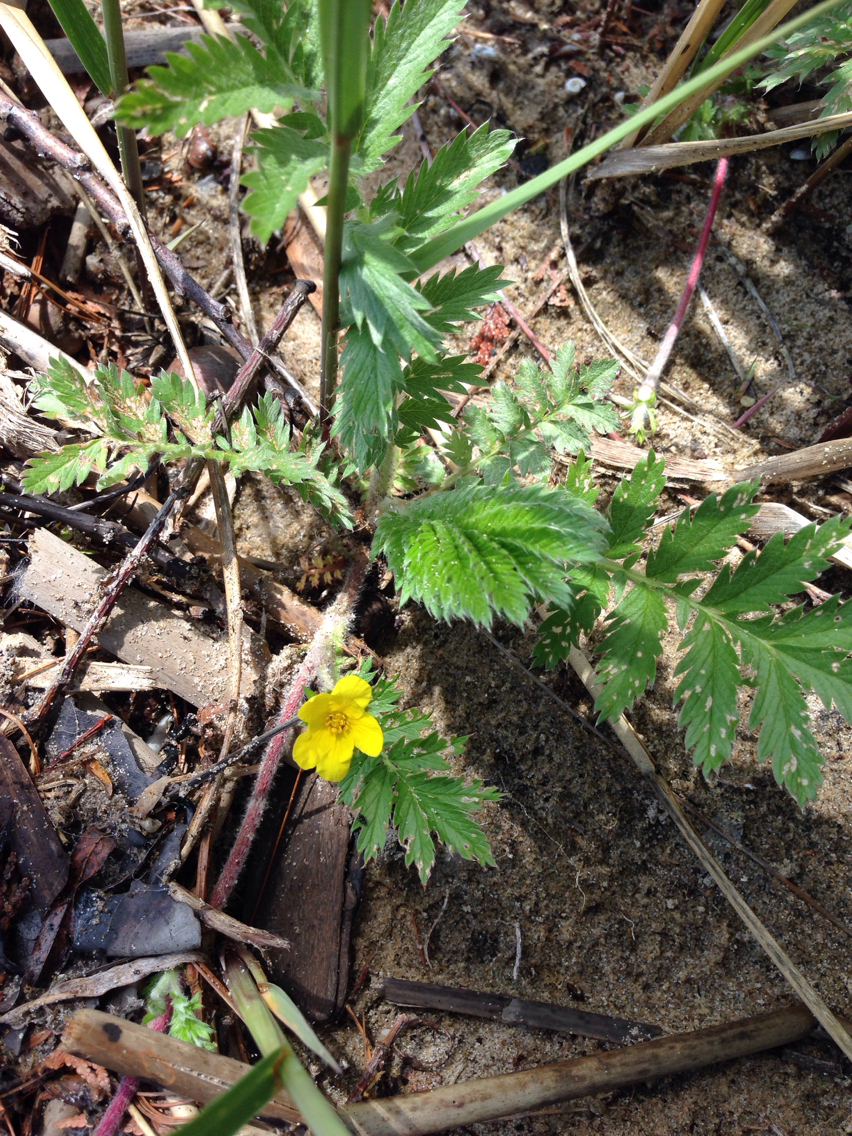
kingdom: Plantae
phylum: Tracheophyta
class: Magnoliopsida
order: Rosales
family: Rosaceae
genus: Argentina
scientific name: Argentina anserina
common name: Common silverweed
